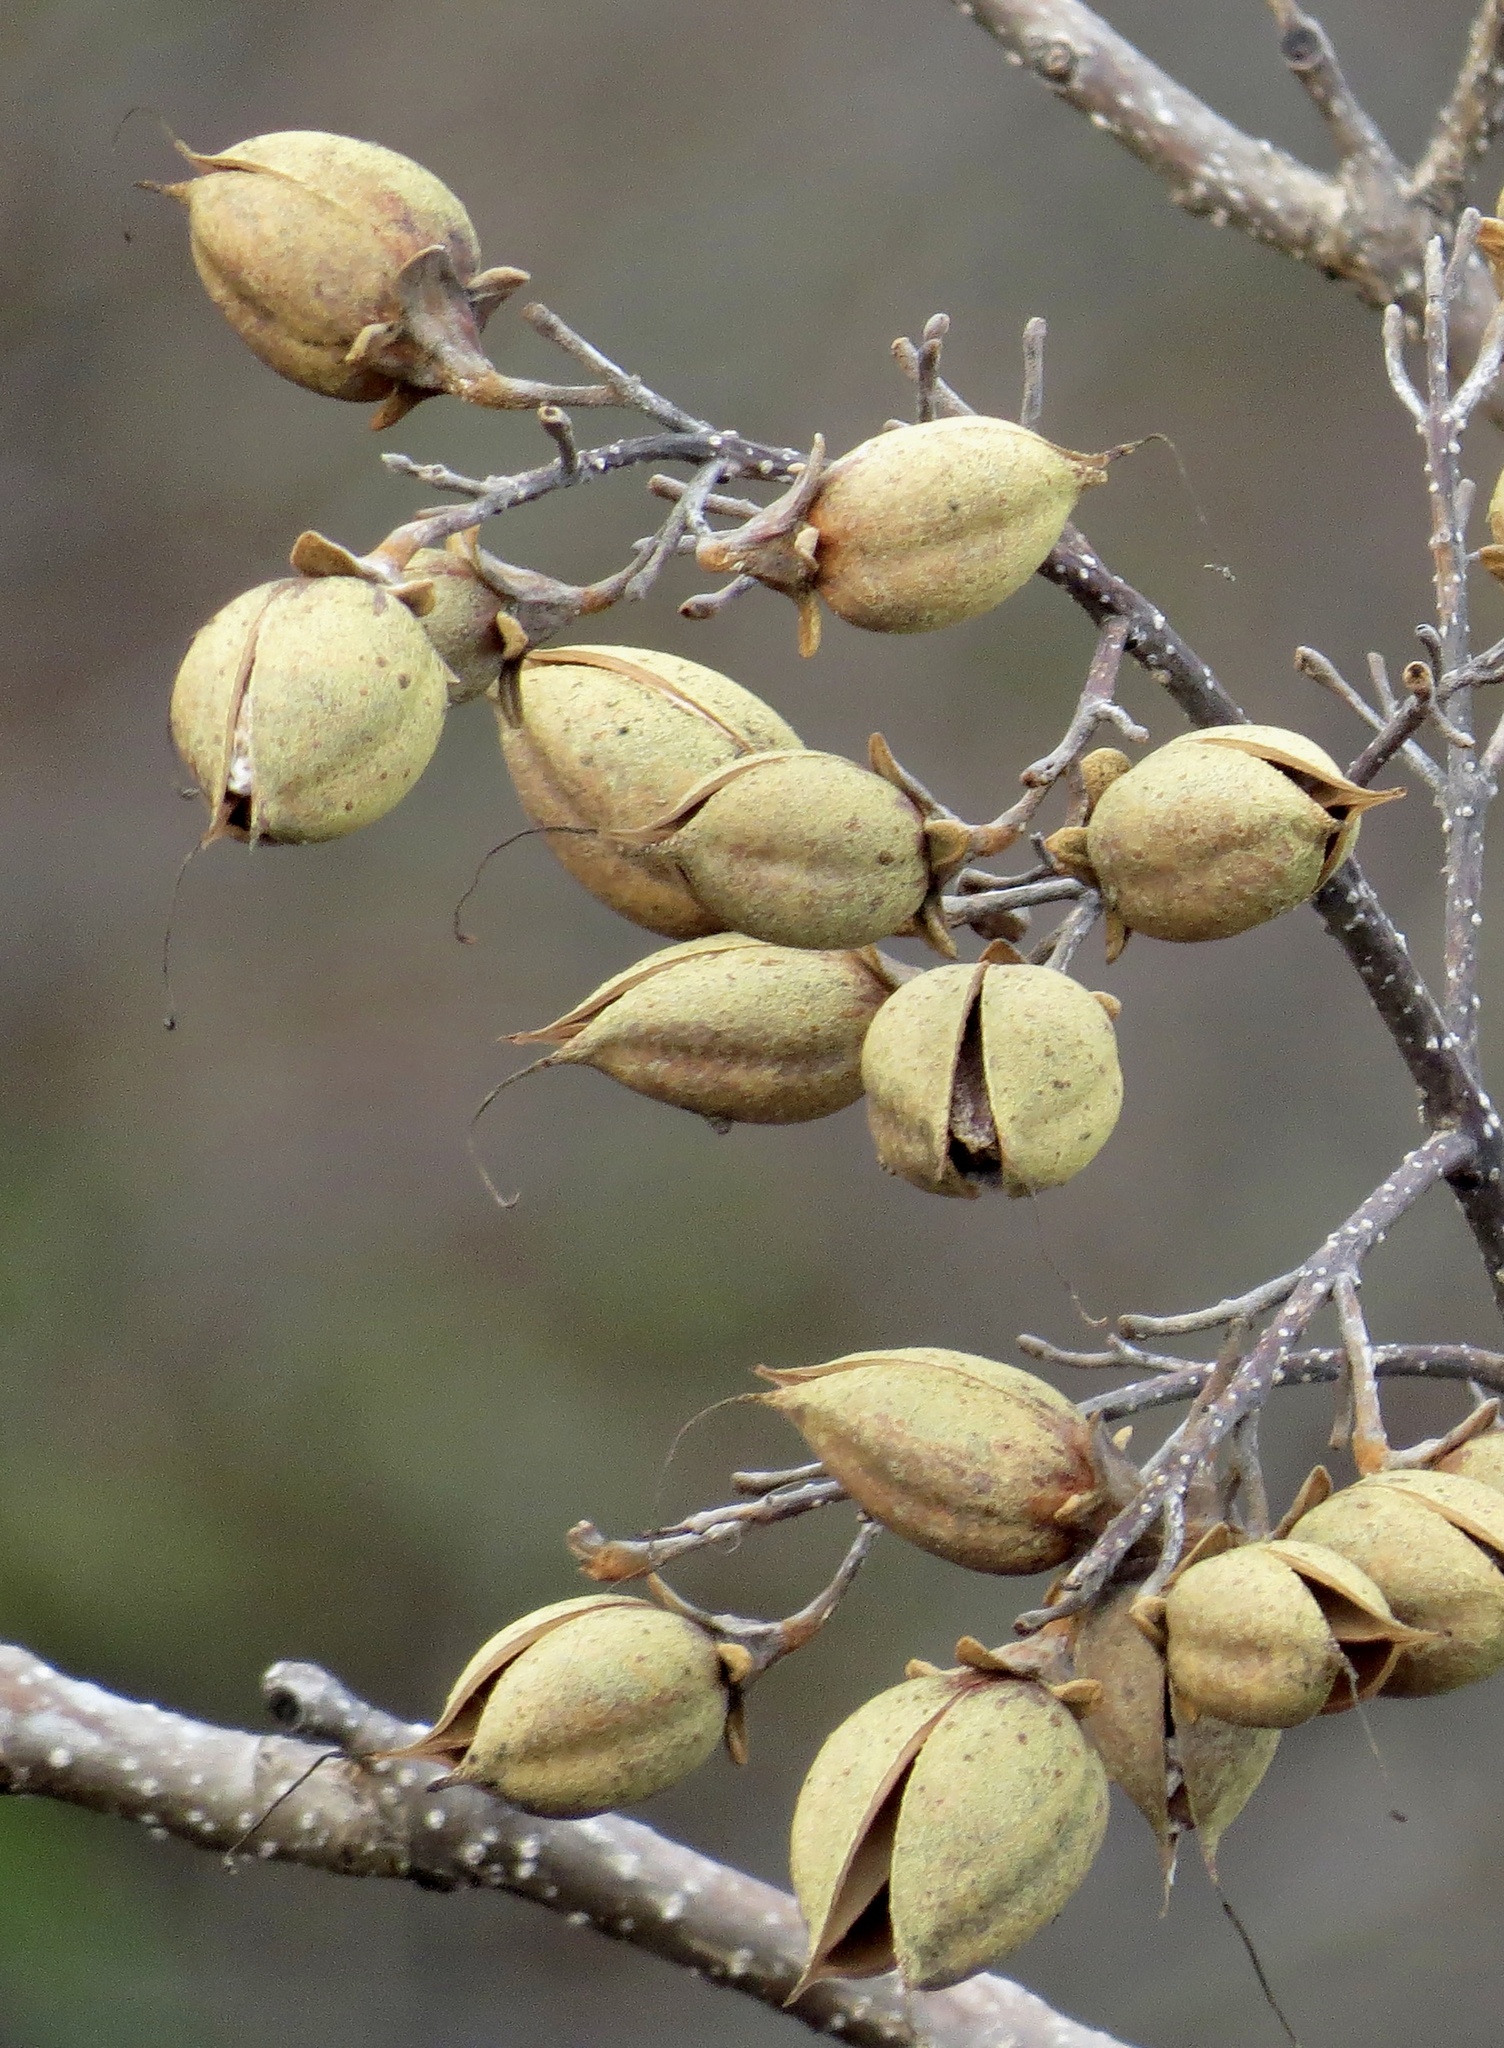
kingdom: Plantae
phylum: Tracheophyta
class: Magnoliopsida
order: Lamiales
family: Paulowniaceae
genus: Paulownia
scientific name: Paulownia tomentosa
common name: Foxglove-tree
